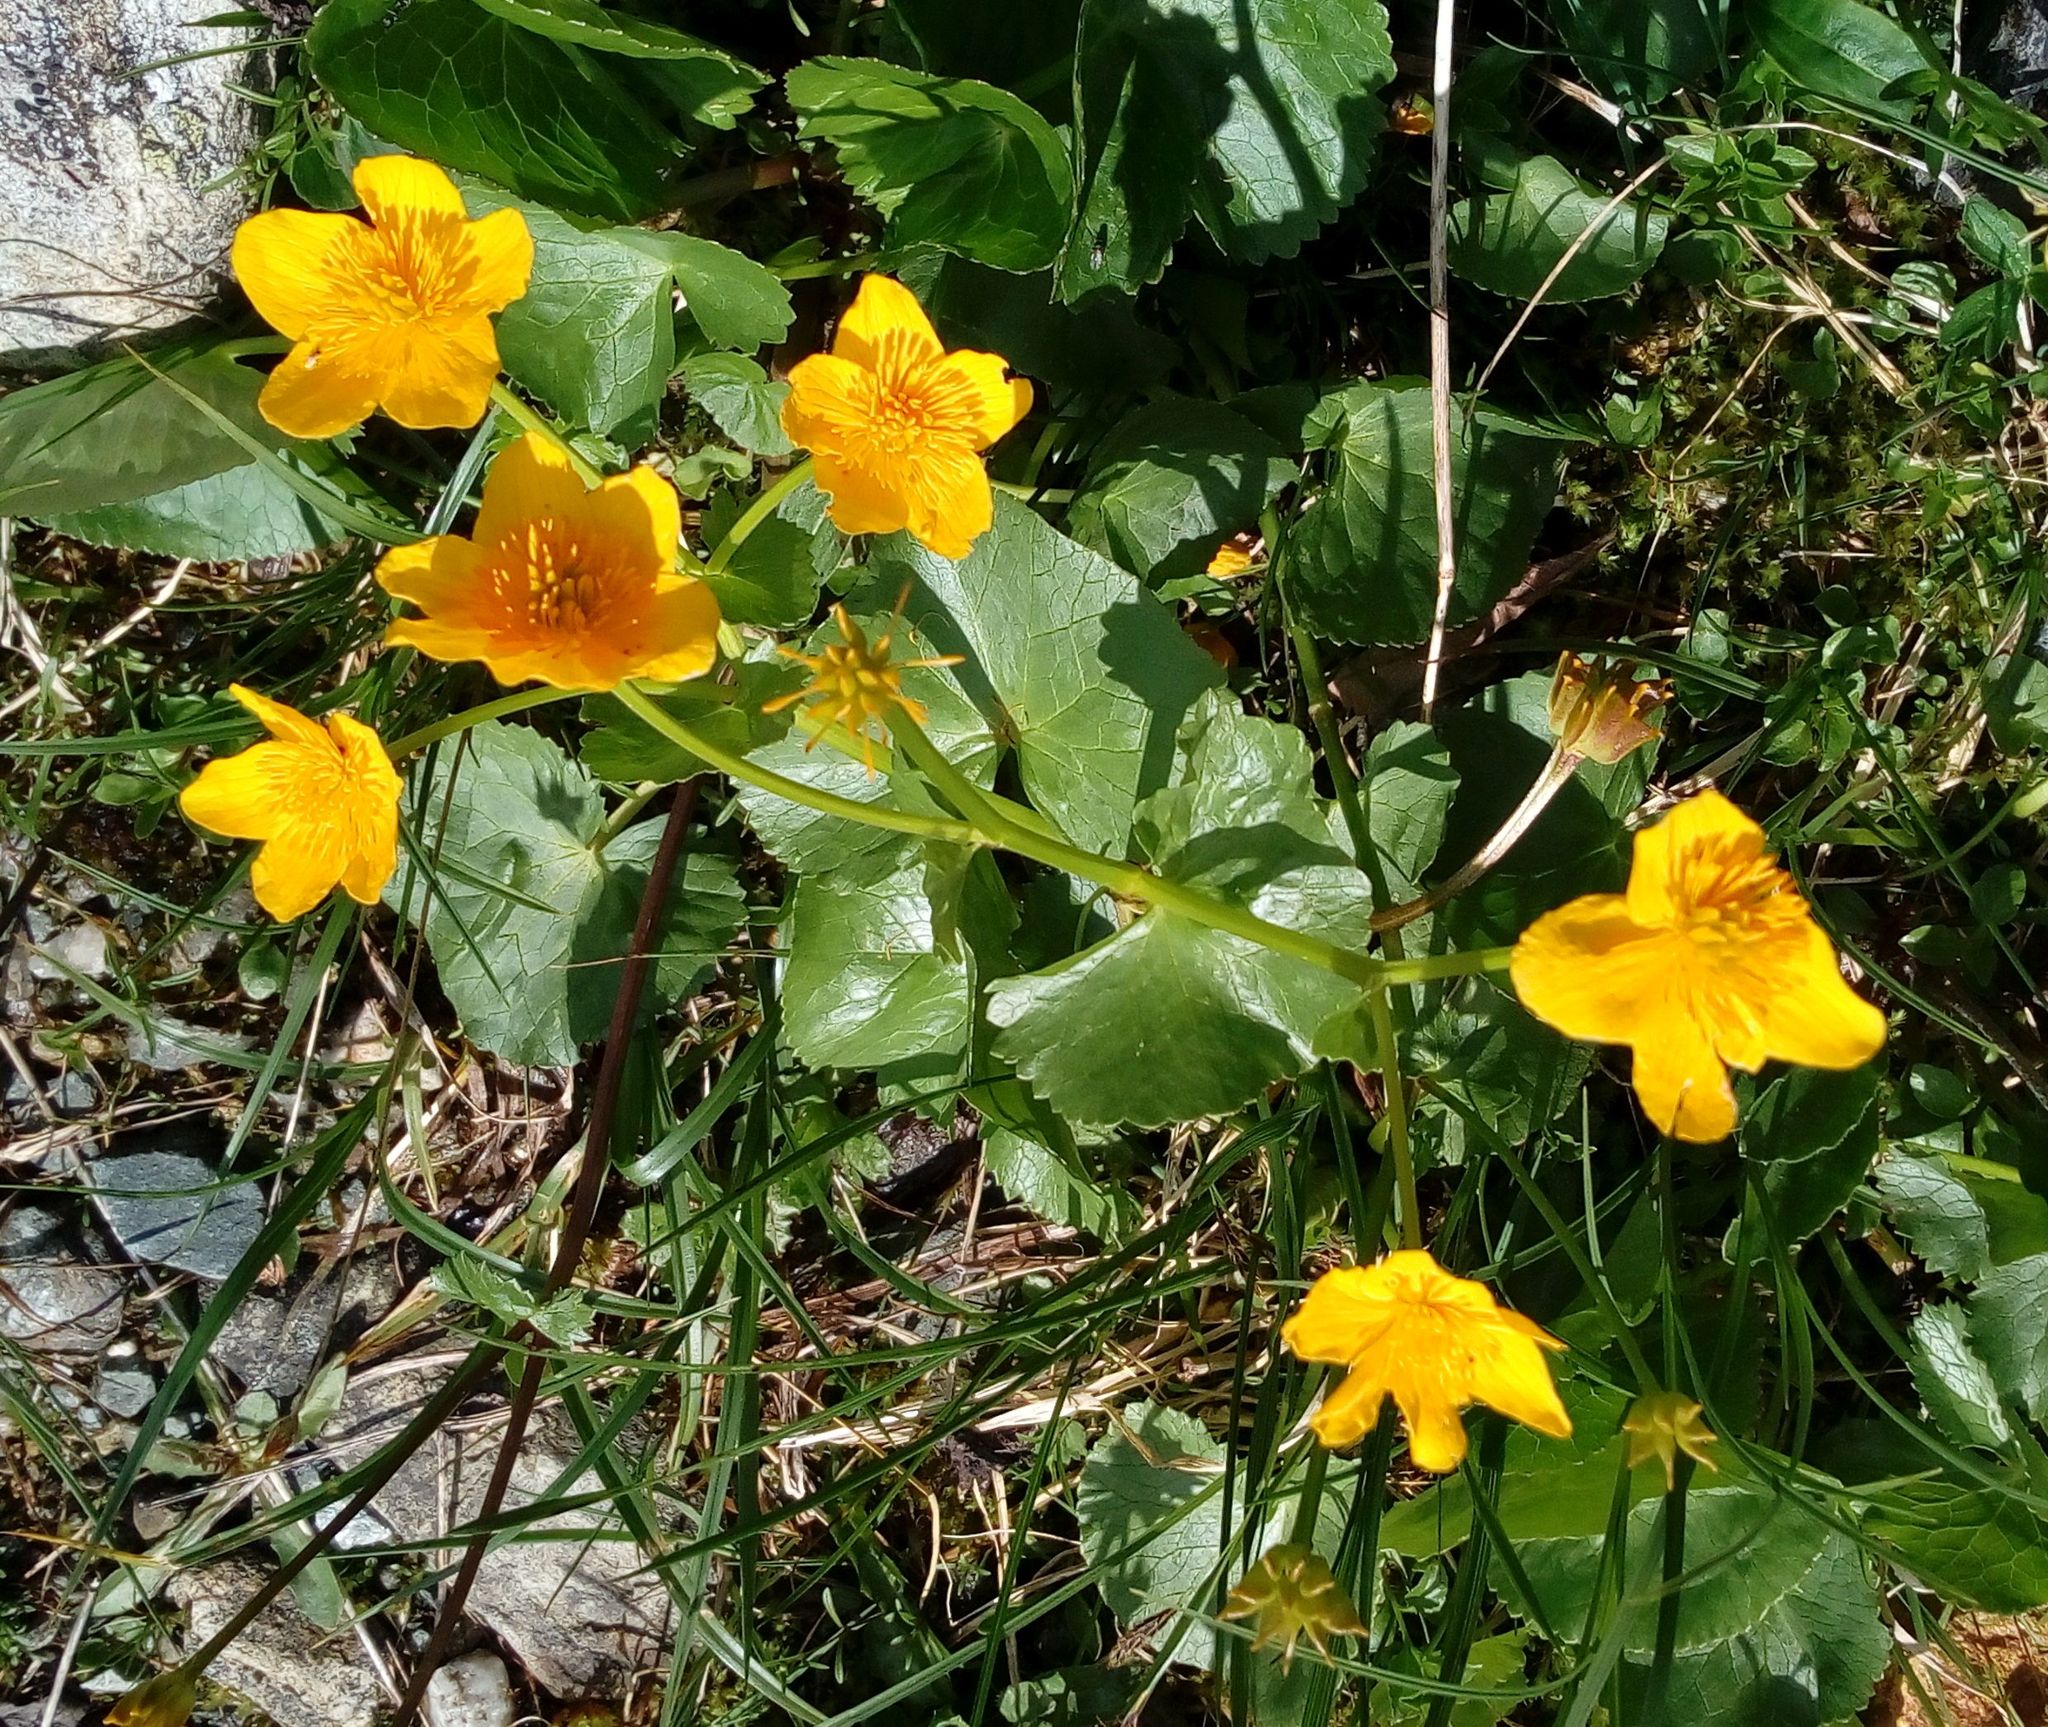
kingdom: Plantae
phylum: Tracheophyta
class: Magnoliopsida
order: Ranunculales
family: Ranunculaceae
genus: Caltha
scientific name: Caltha palustris
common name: Marsh marigold
